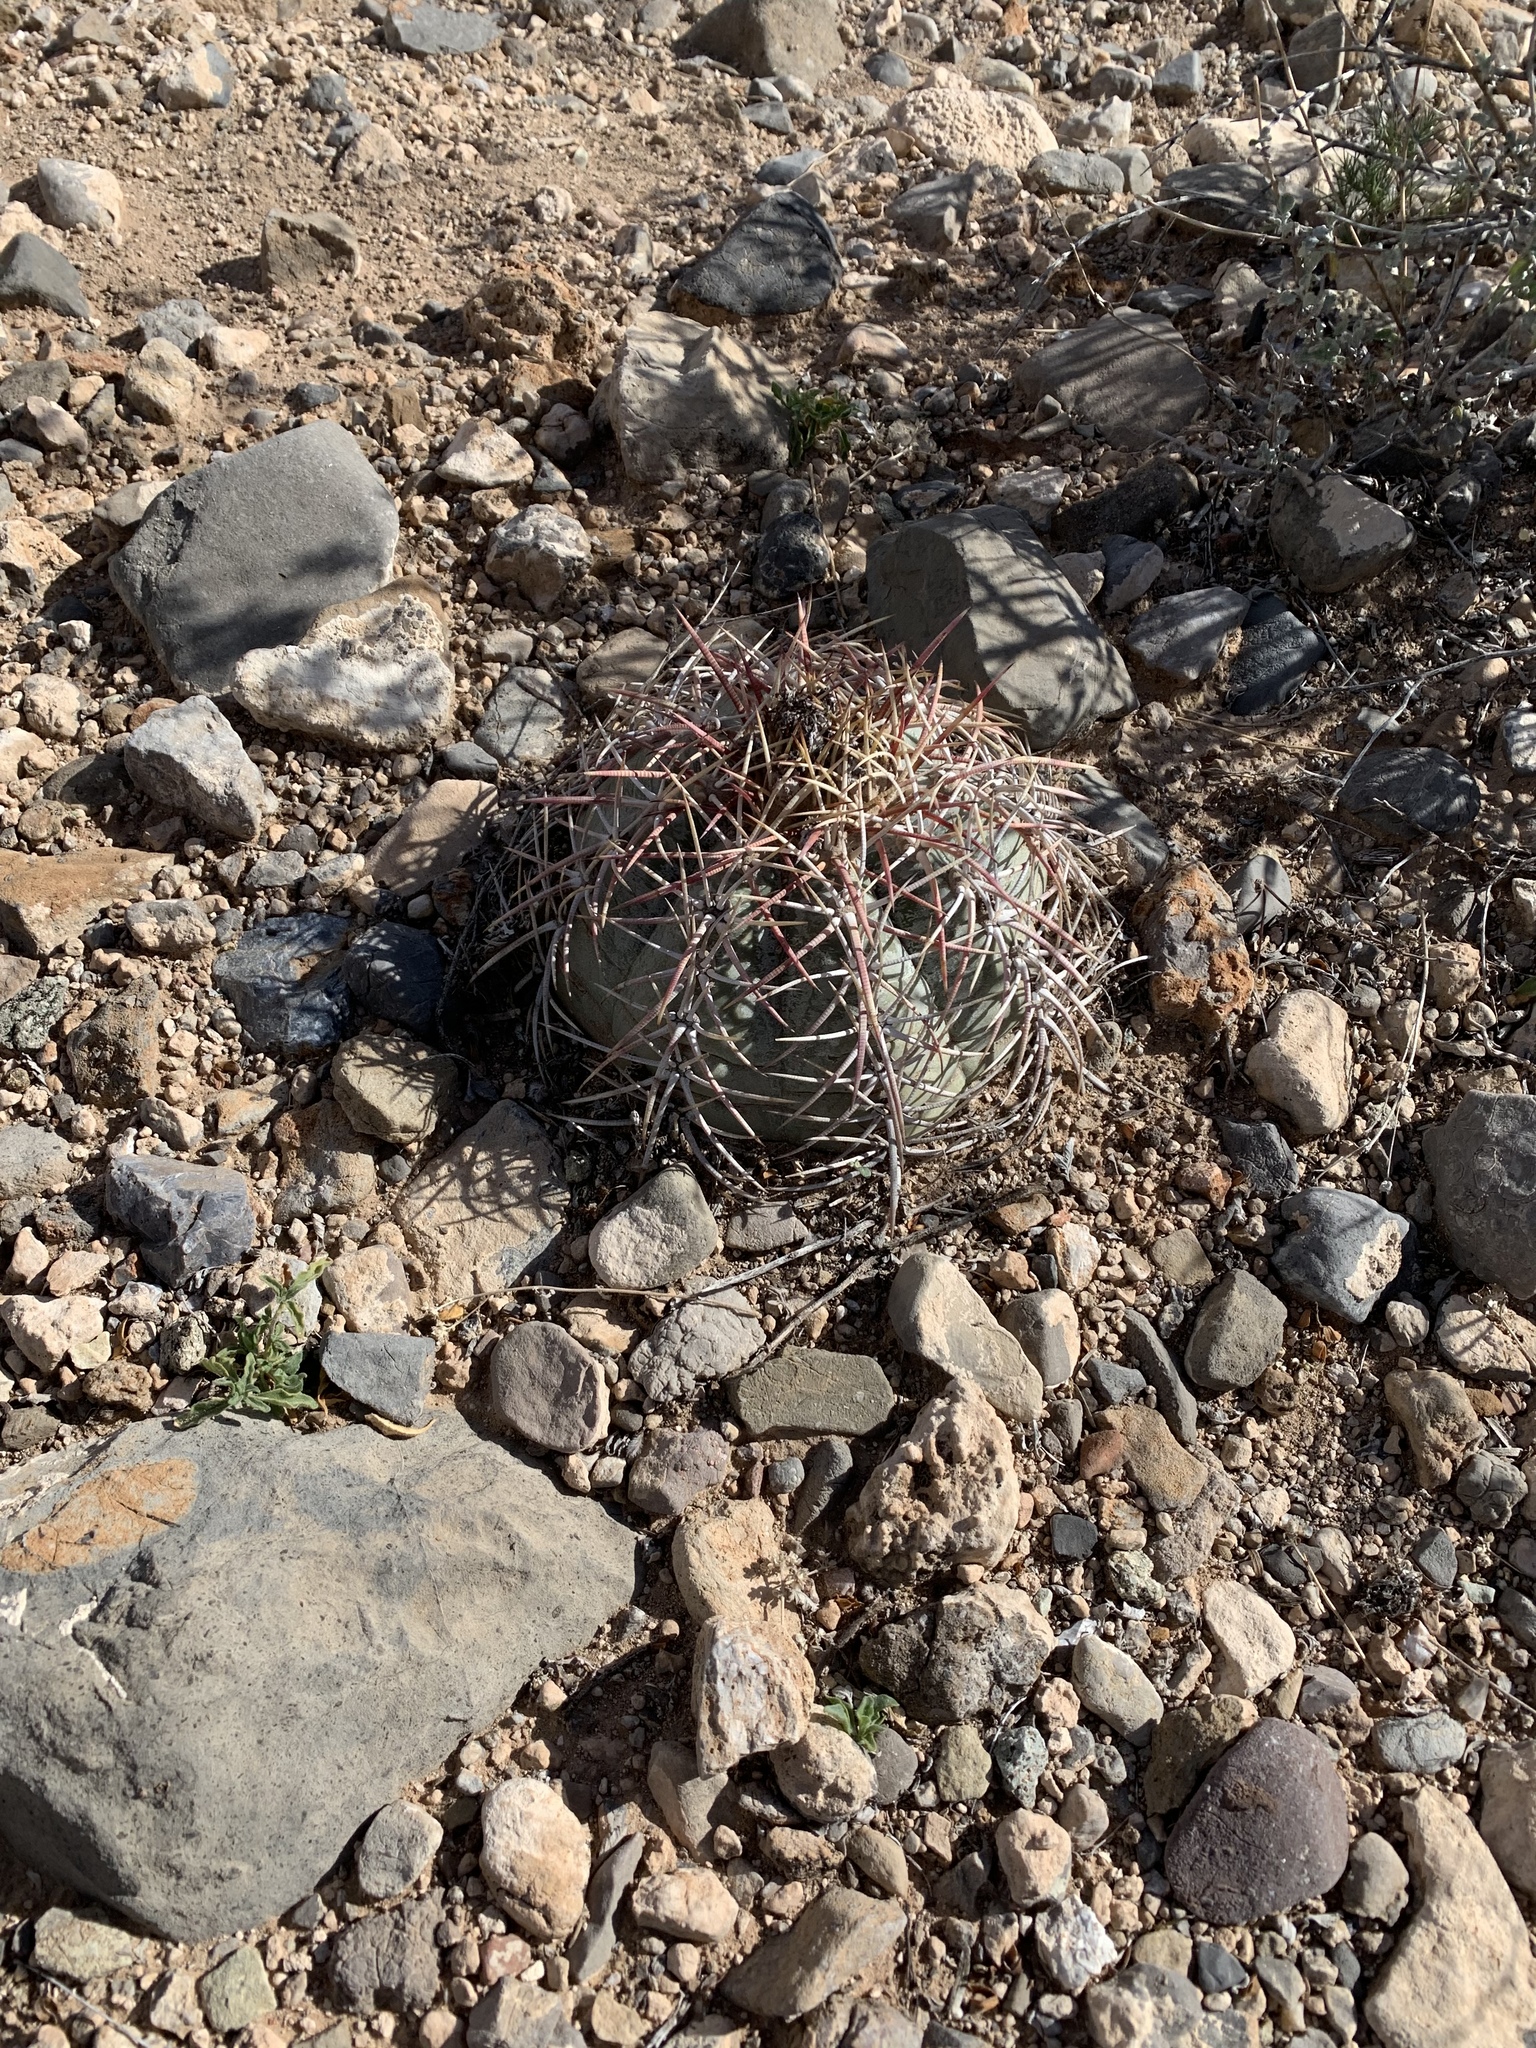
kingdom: Plantae
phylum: Tracheophyta
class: Magnoliopsida
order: Caryophyllales
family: Cactaceae
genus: Echinocactus
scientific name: Echinocactus horizonthalonius
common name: Devilshead
